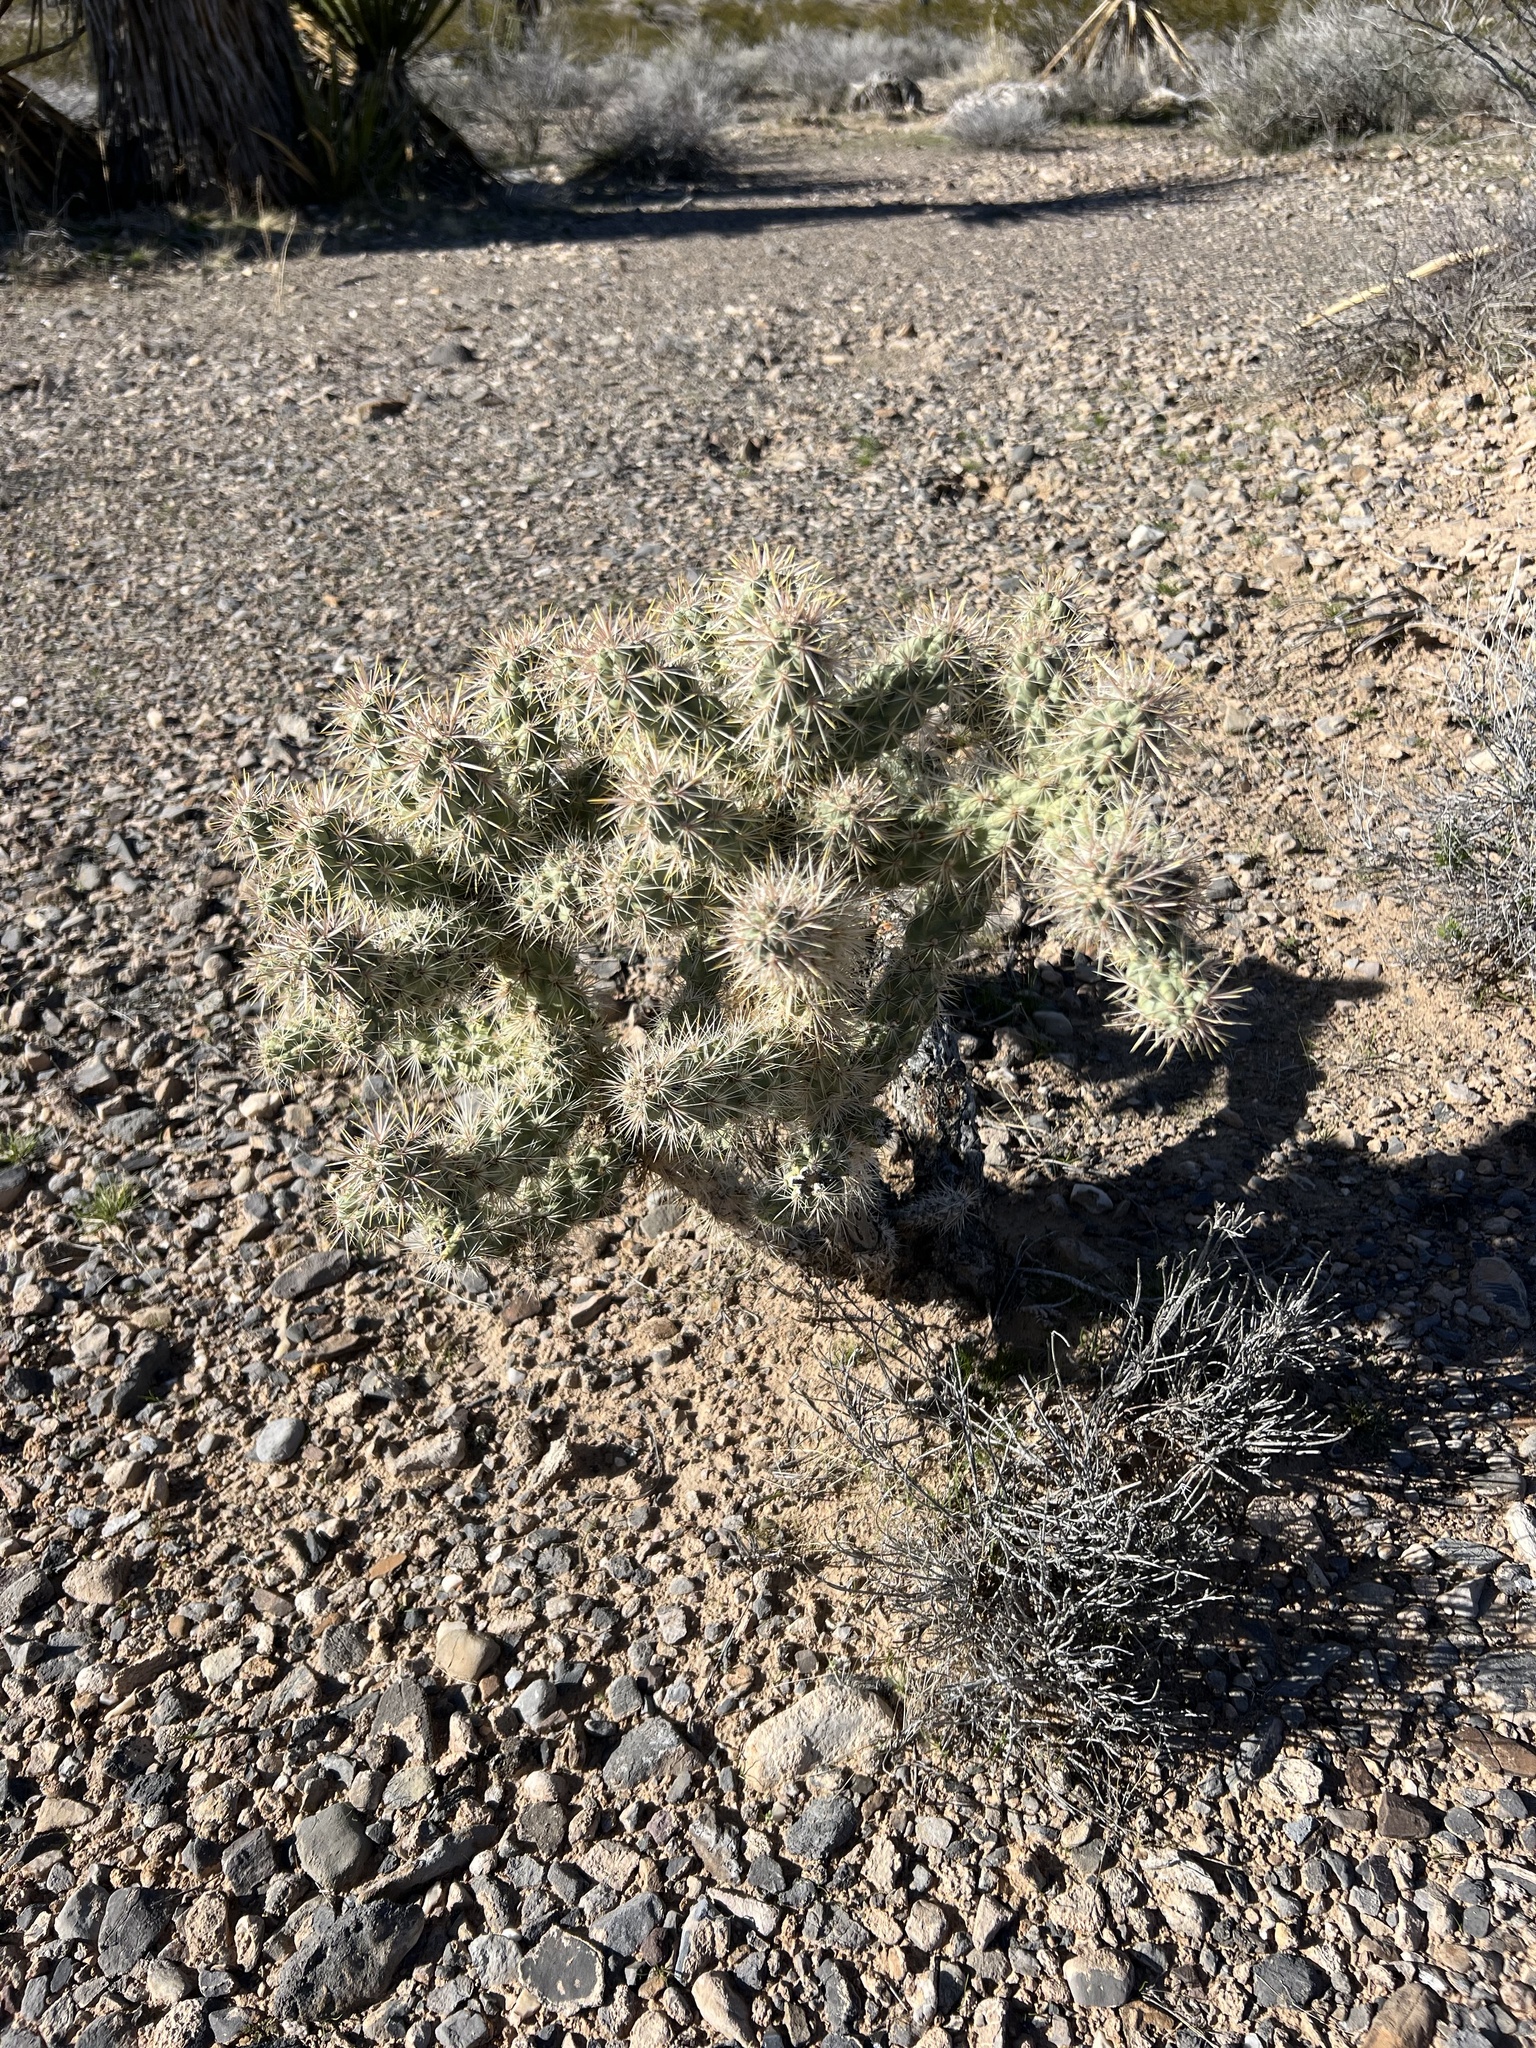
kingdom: Plantae
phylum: Tracheophyta
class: Magnoliopsida
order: Caryophyllales
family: Cactaceae
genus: Cylindropuntia
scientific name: Cylindropuntia echinocarpa
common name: Ground cholla
